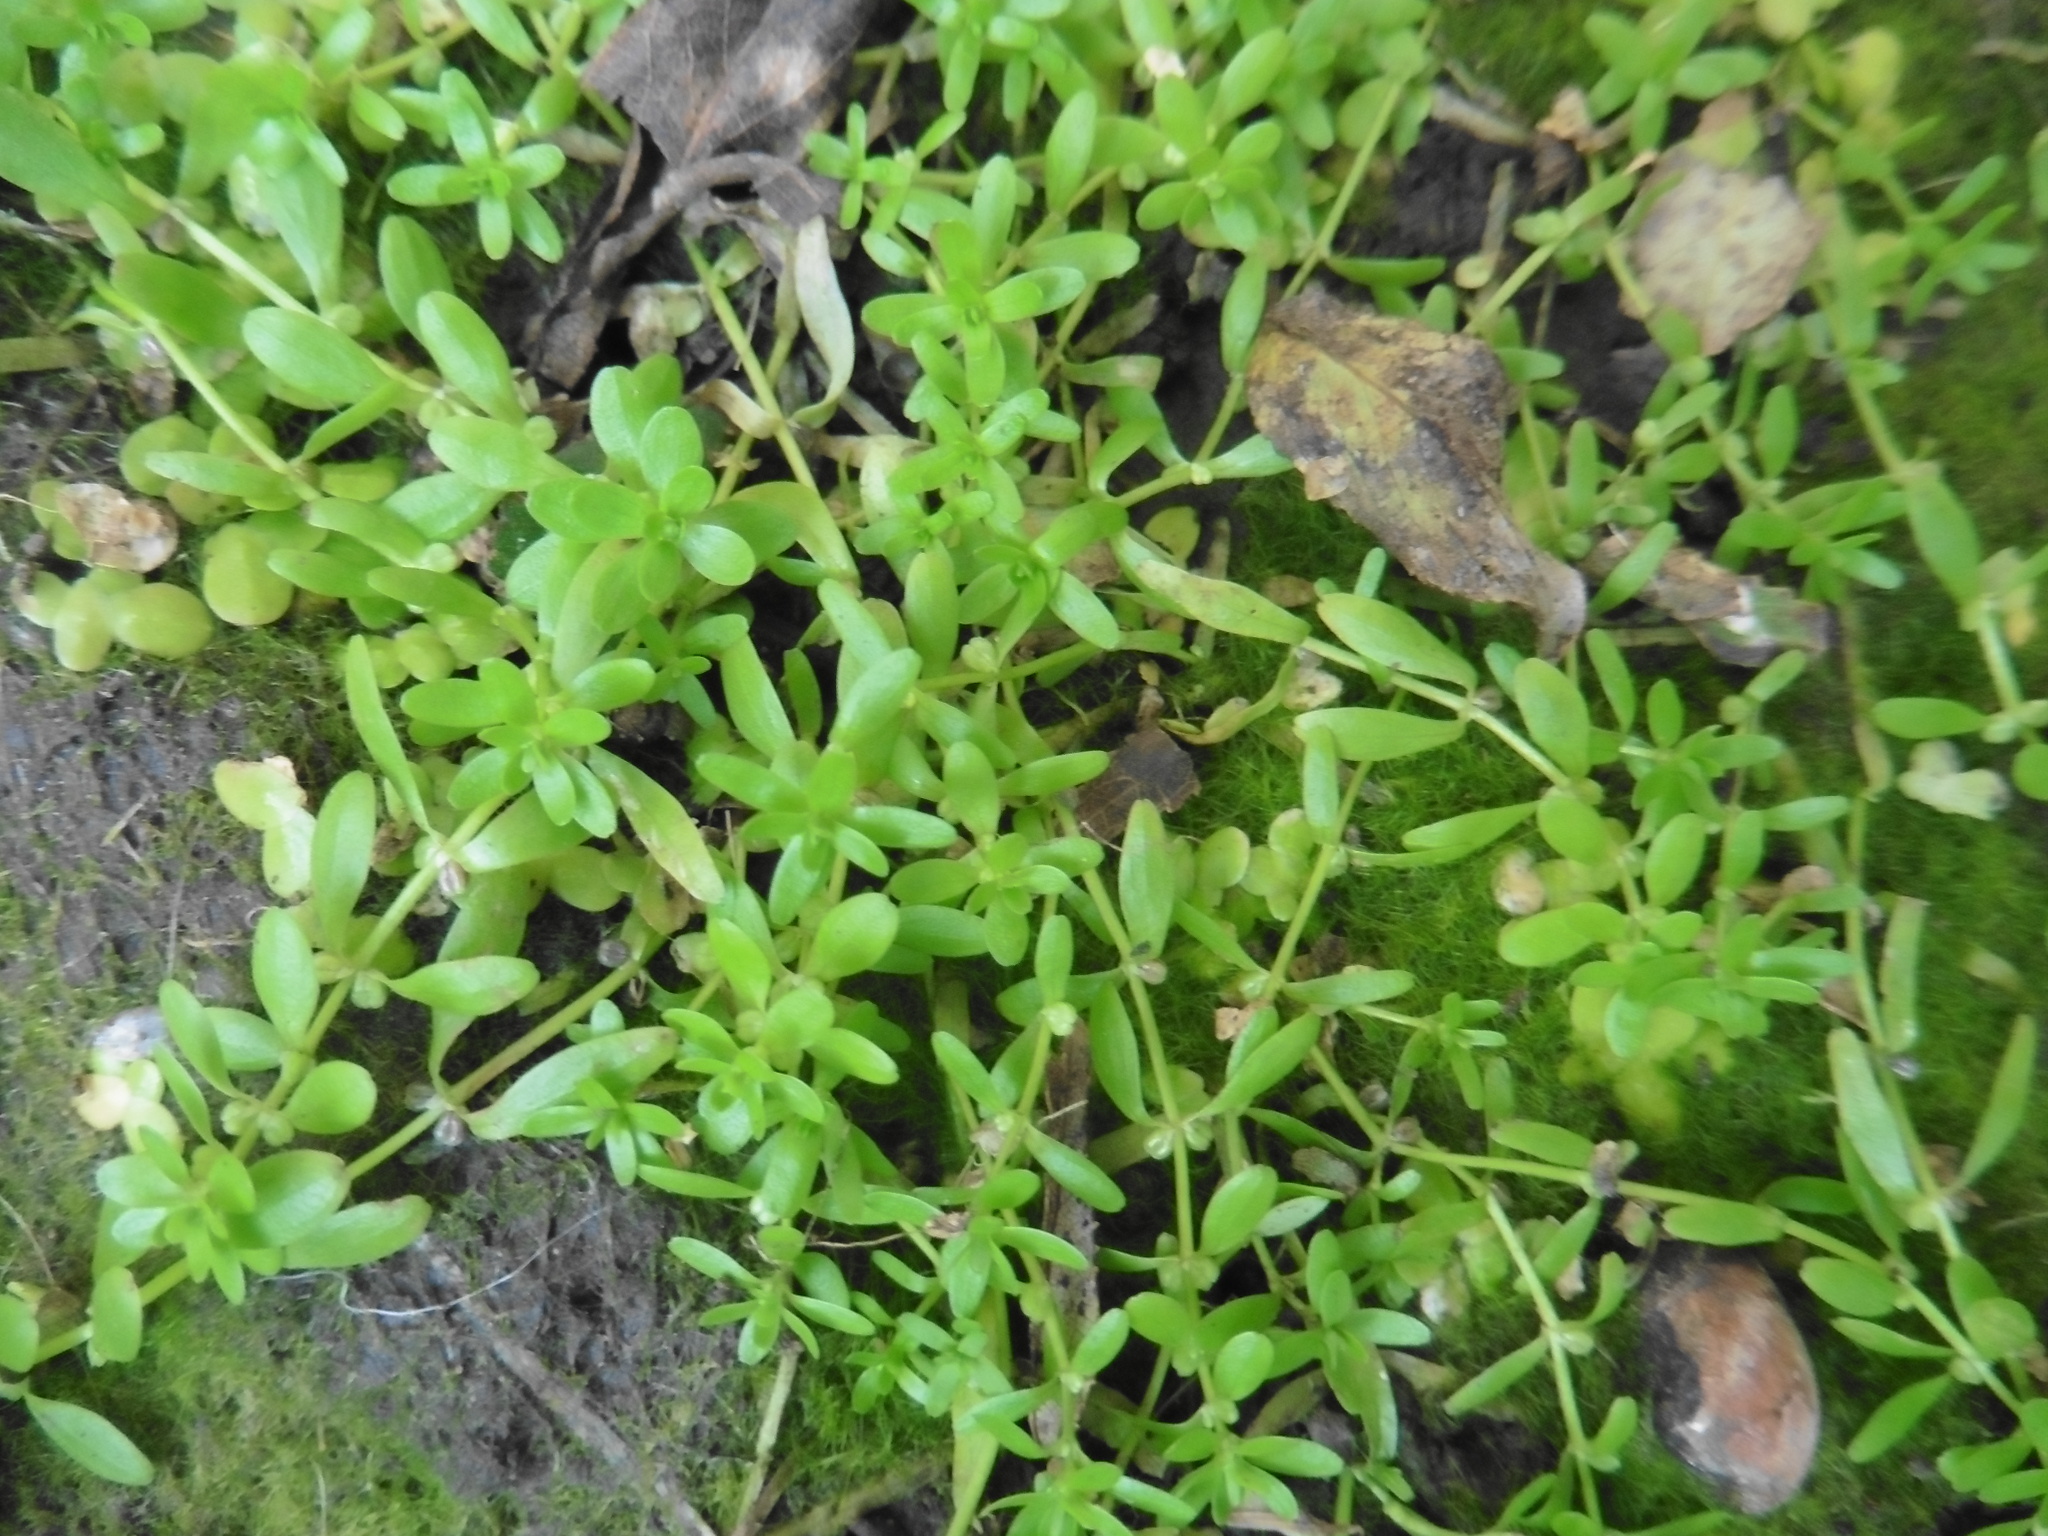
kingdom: Plantae
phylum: Tracheophyta
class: Magnoliopsida
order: Lamiales
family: Plantaginaceae
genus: Callitriche
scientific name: Callitriche palustris
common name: Spring water-starwort
